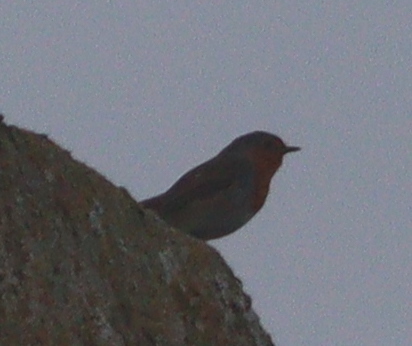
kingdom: Animalia
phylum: Chordata
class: Aves
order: Passeriformes
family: Muscicapidae
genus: Erithacus
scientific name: Erithacus rubecula
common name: European robin
